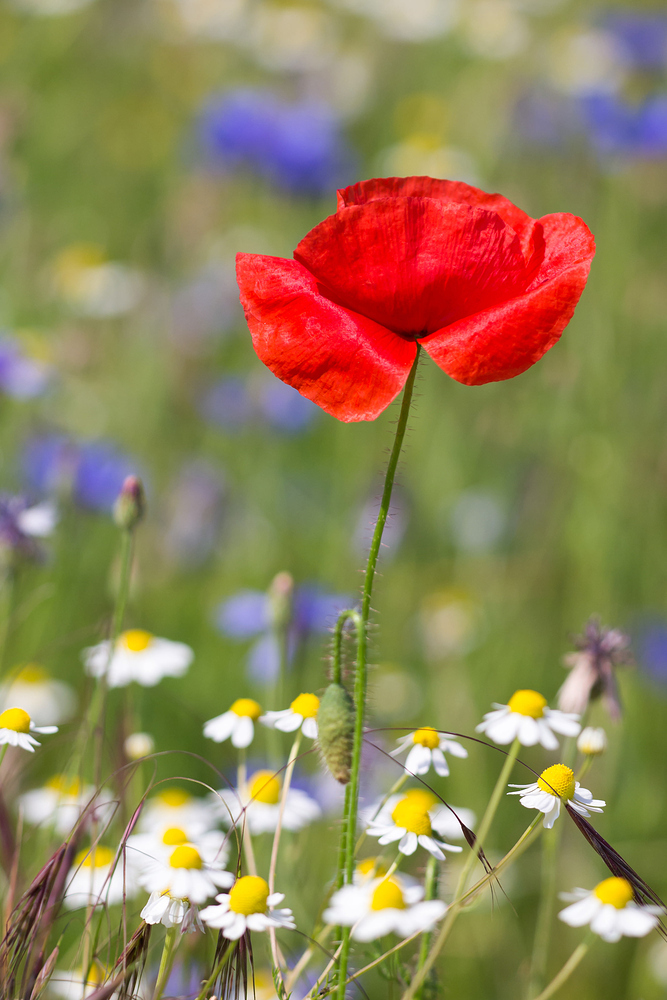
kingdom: Plantae
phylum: Tracheophyta
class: Magnoliopsida
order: Ranunculales
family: Papaveraceae
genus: Papaver
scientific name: Papaver rhoeas
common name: Corn poppy
